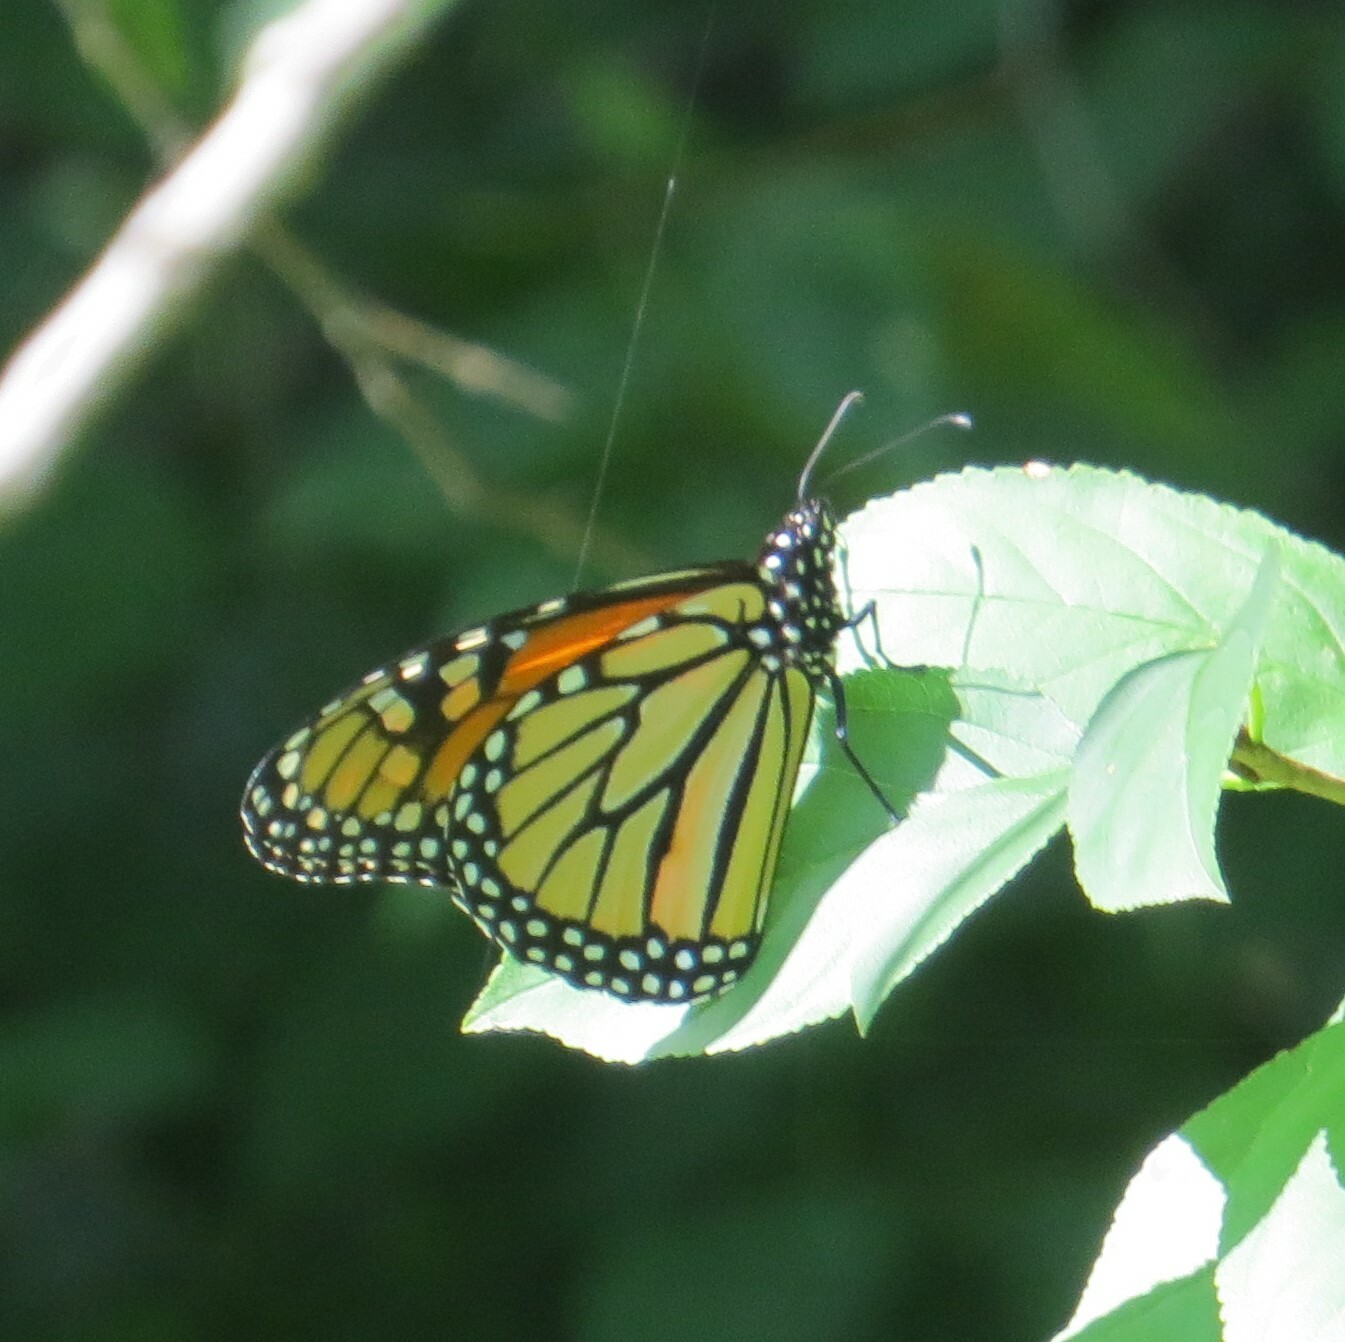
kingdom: Animalia
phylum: Arthropoda
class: Insecta
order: Lepidoptera
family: Nymphalidae
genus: Danaus
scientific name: Danaus plexippus
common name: Monarch
